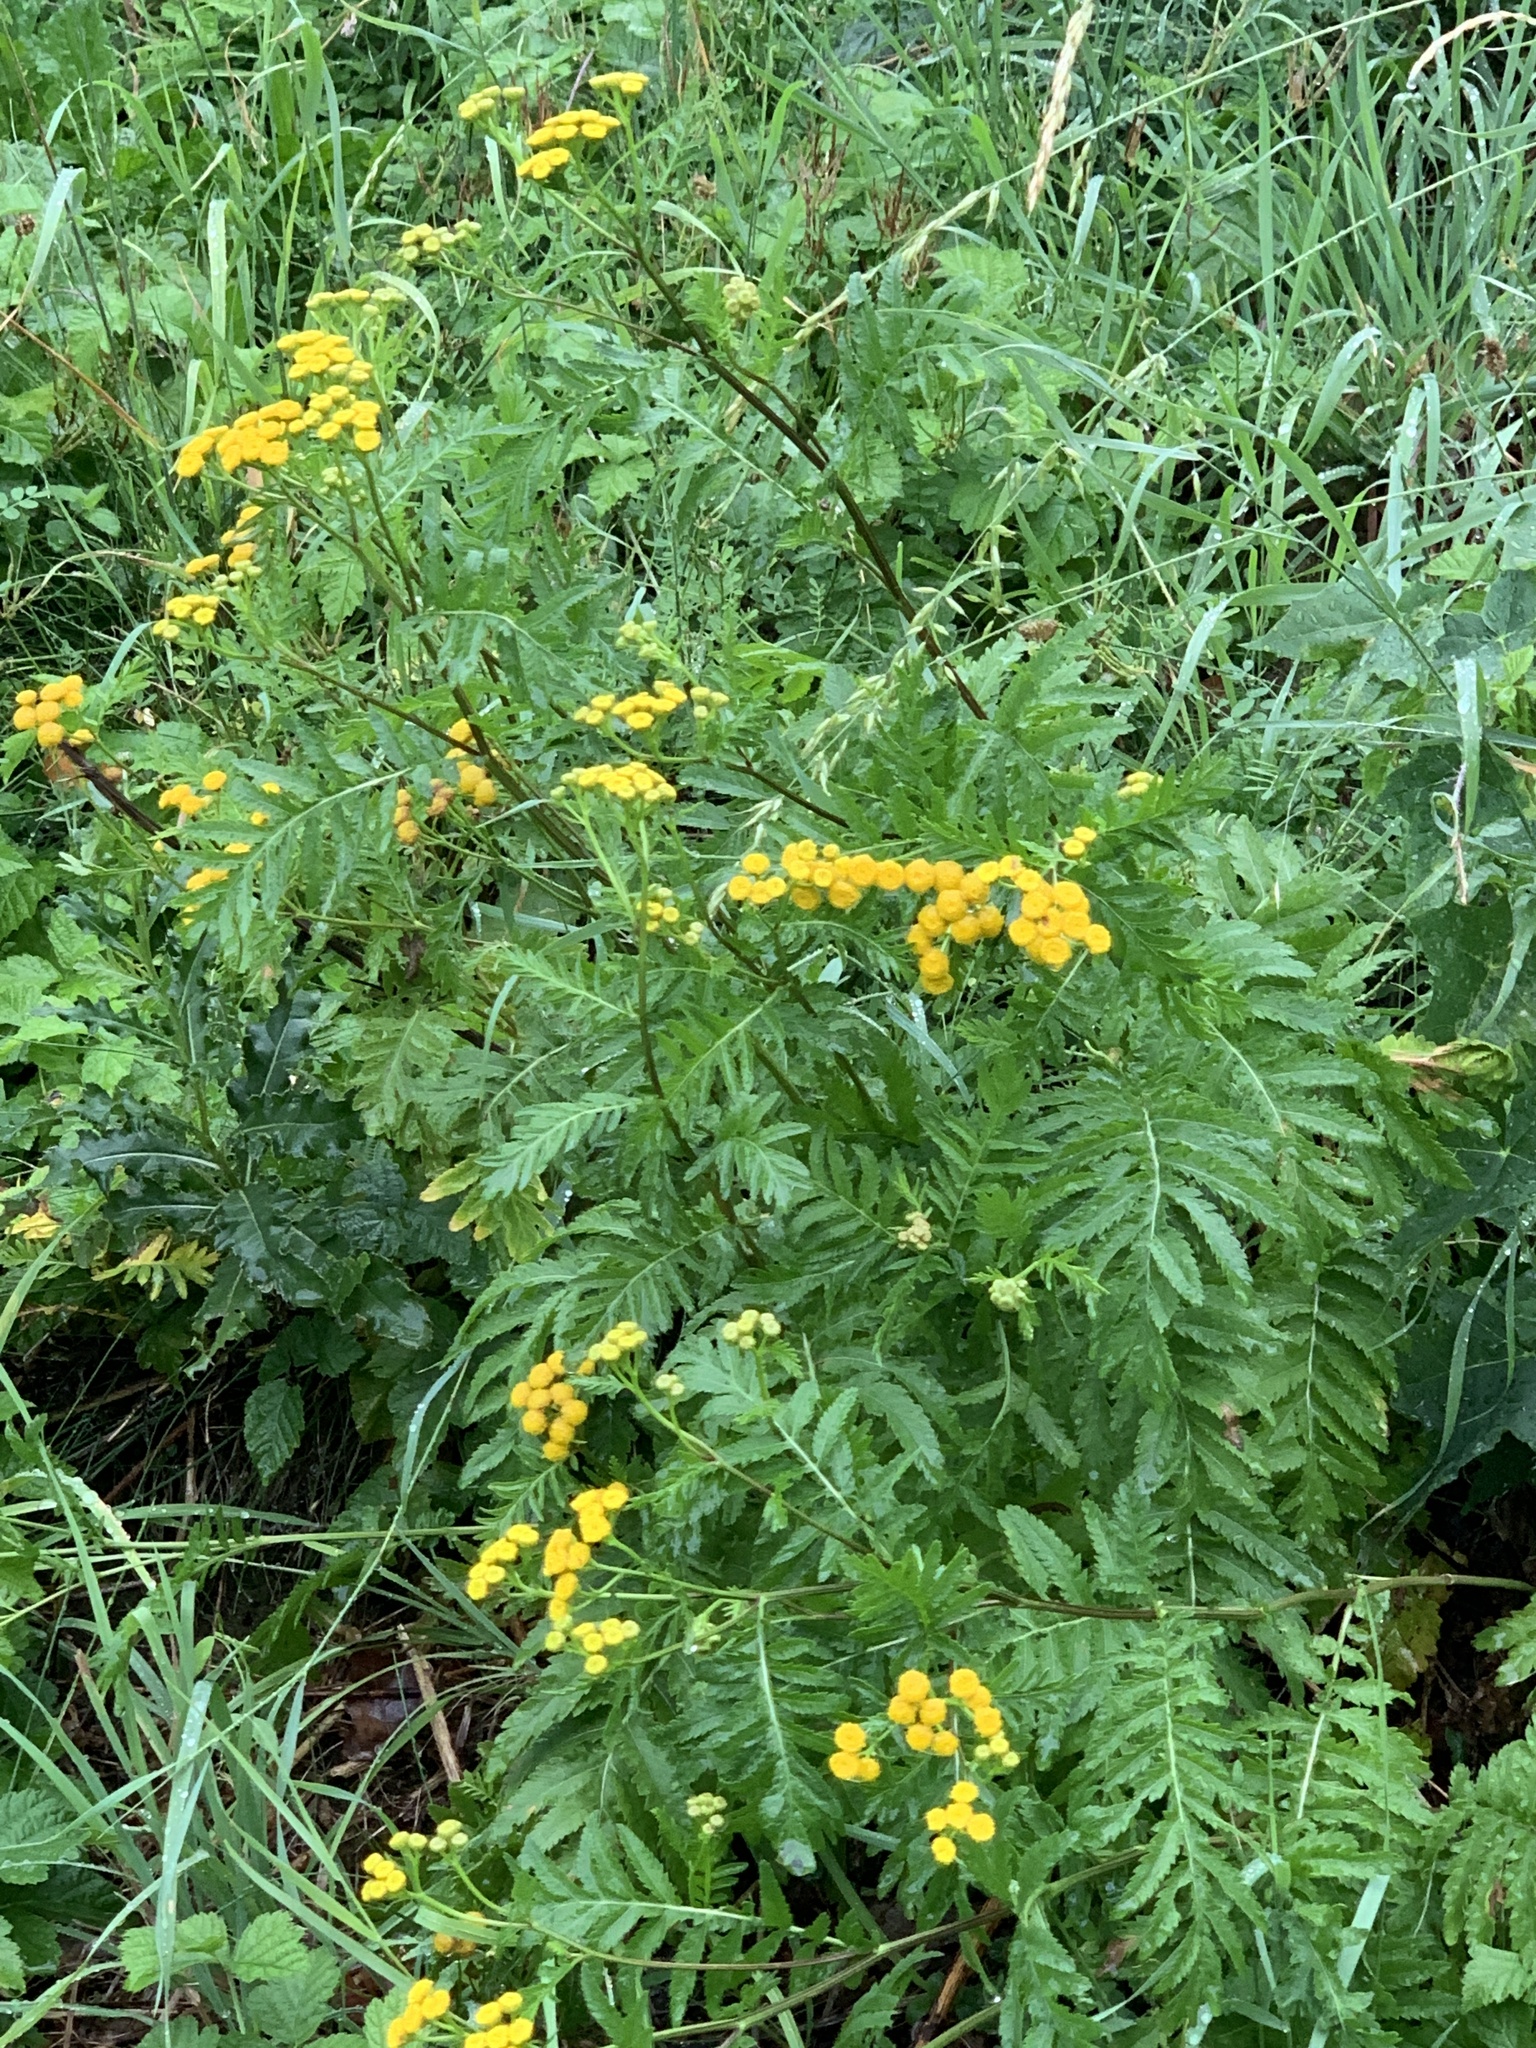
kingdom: Plantae
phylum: Tracheophyta
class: Magnoliopsida
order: Asterales
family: Asteraceae
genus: Tanacetum
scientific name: Tanacetum vulgare
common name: Common tansy
